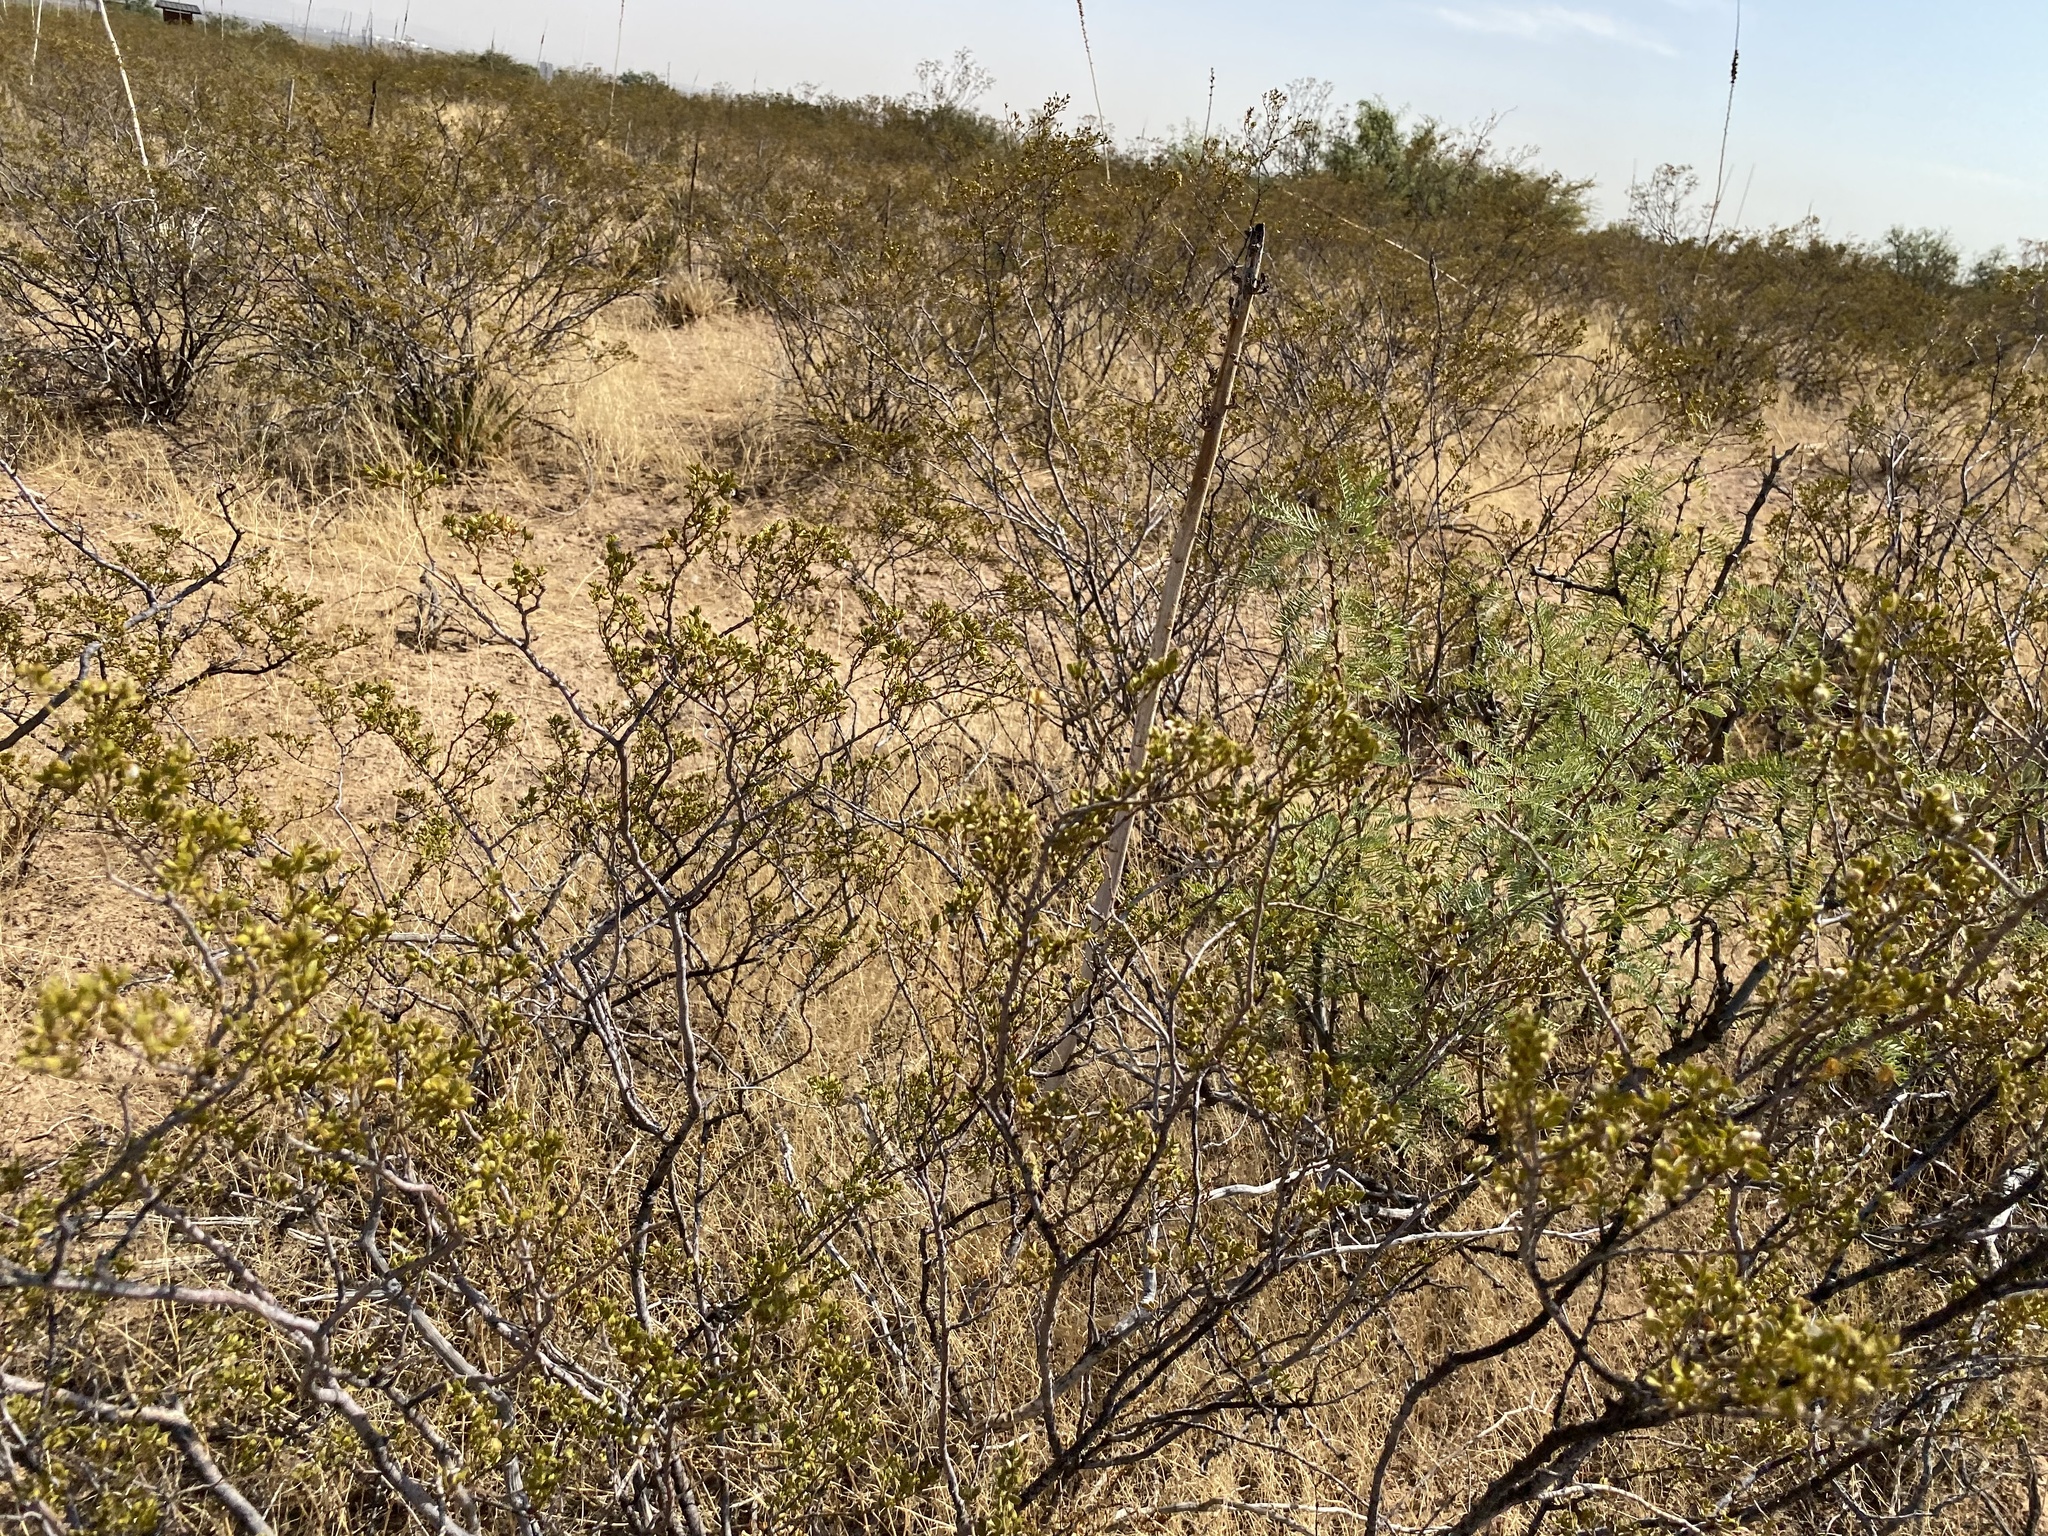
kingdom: Plantae
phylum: Tracheophyta
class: Magnoliopsida
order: Zygophyllales
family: Zygophyllaceae
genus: Larrea
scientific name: Larrea tridentata
